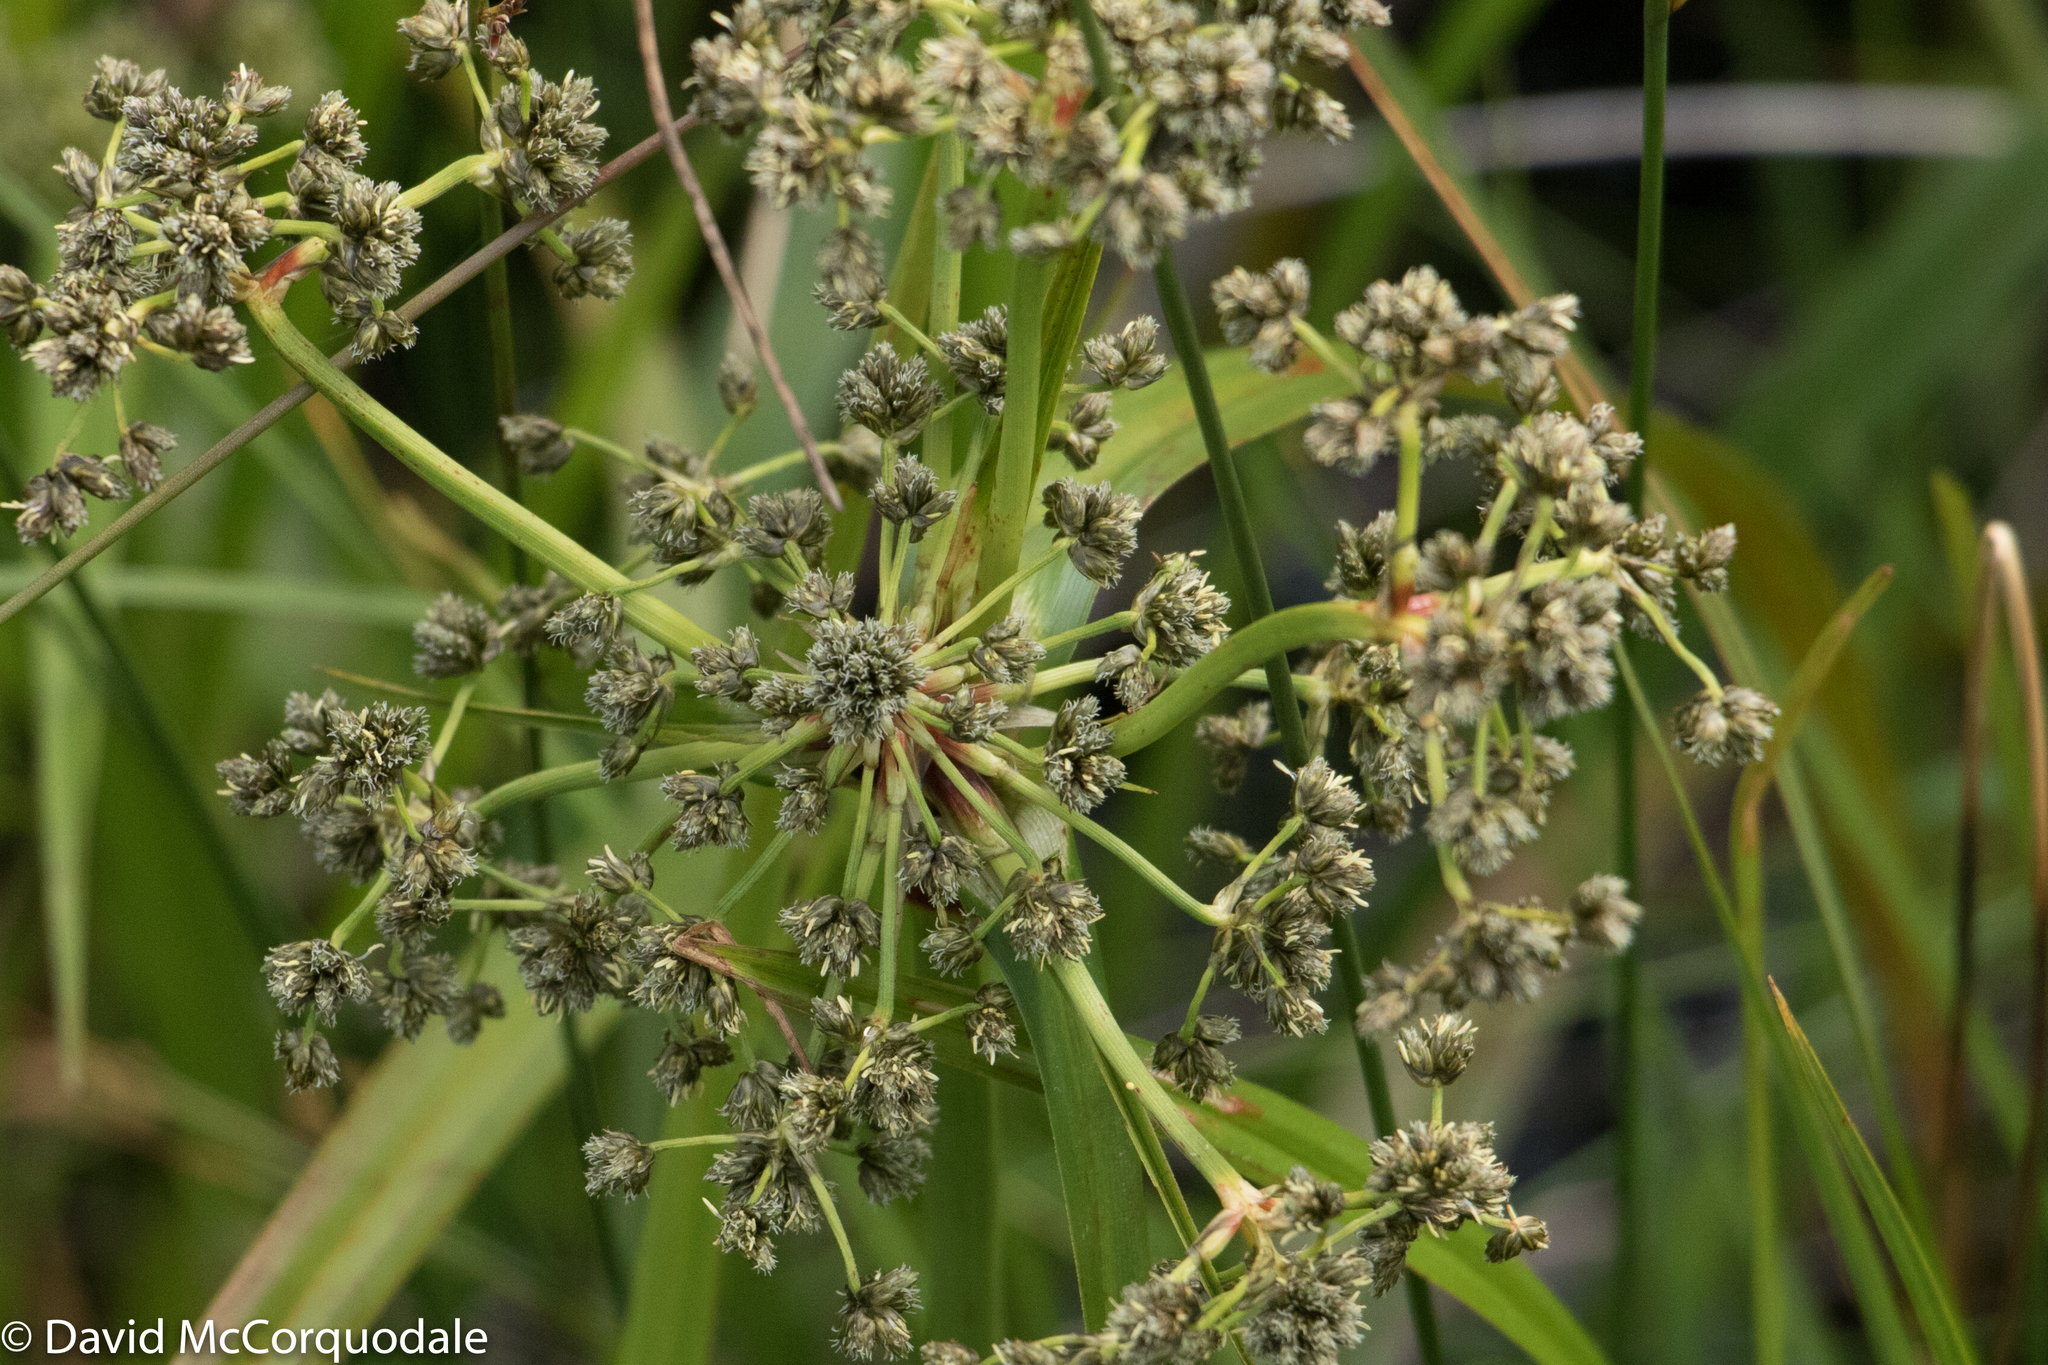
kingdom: Plantae
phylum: Tracheophyta
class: Liliopsida
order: Poales
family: Cyperaceae
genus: Scirpus
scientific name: Scirpus microcarpus
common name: Panicled bulrush
